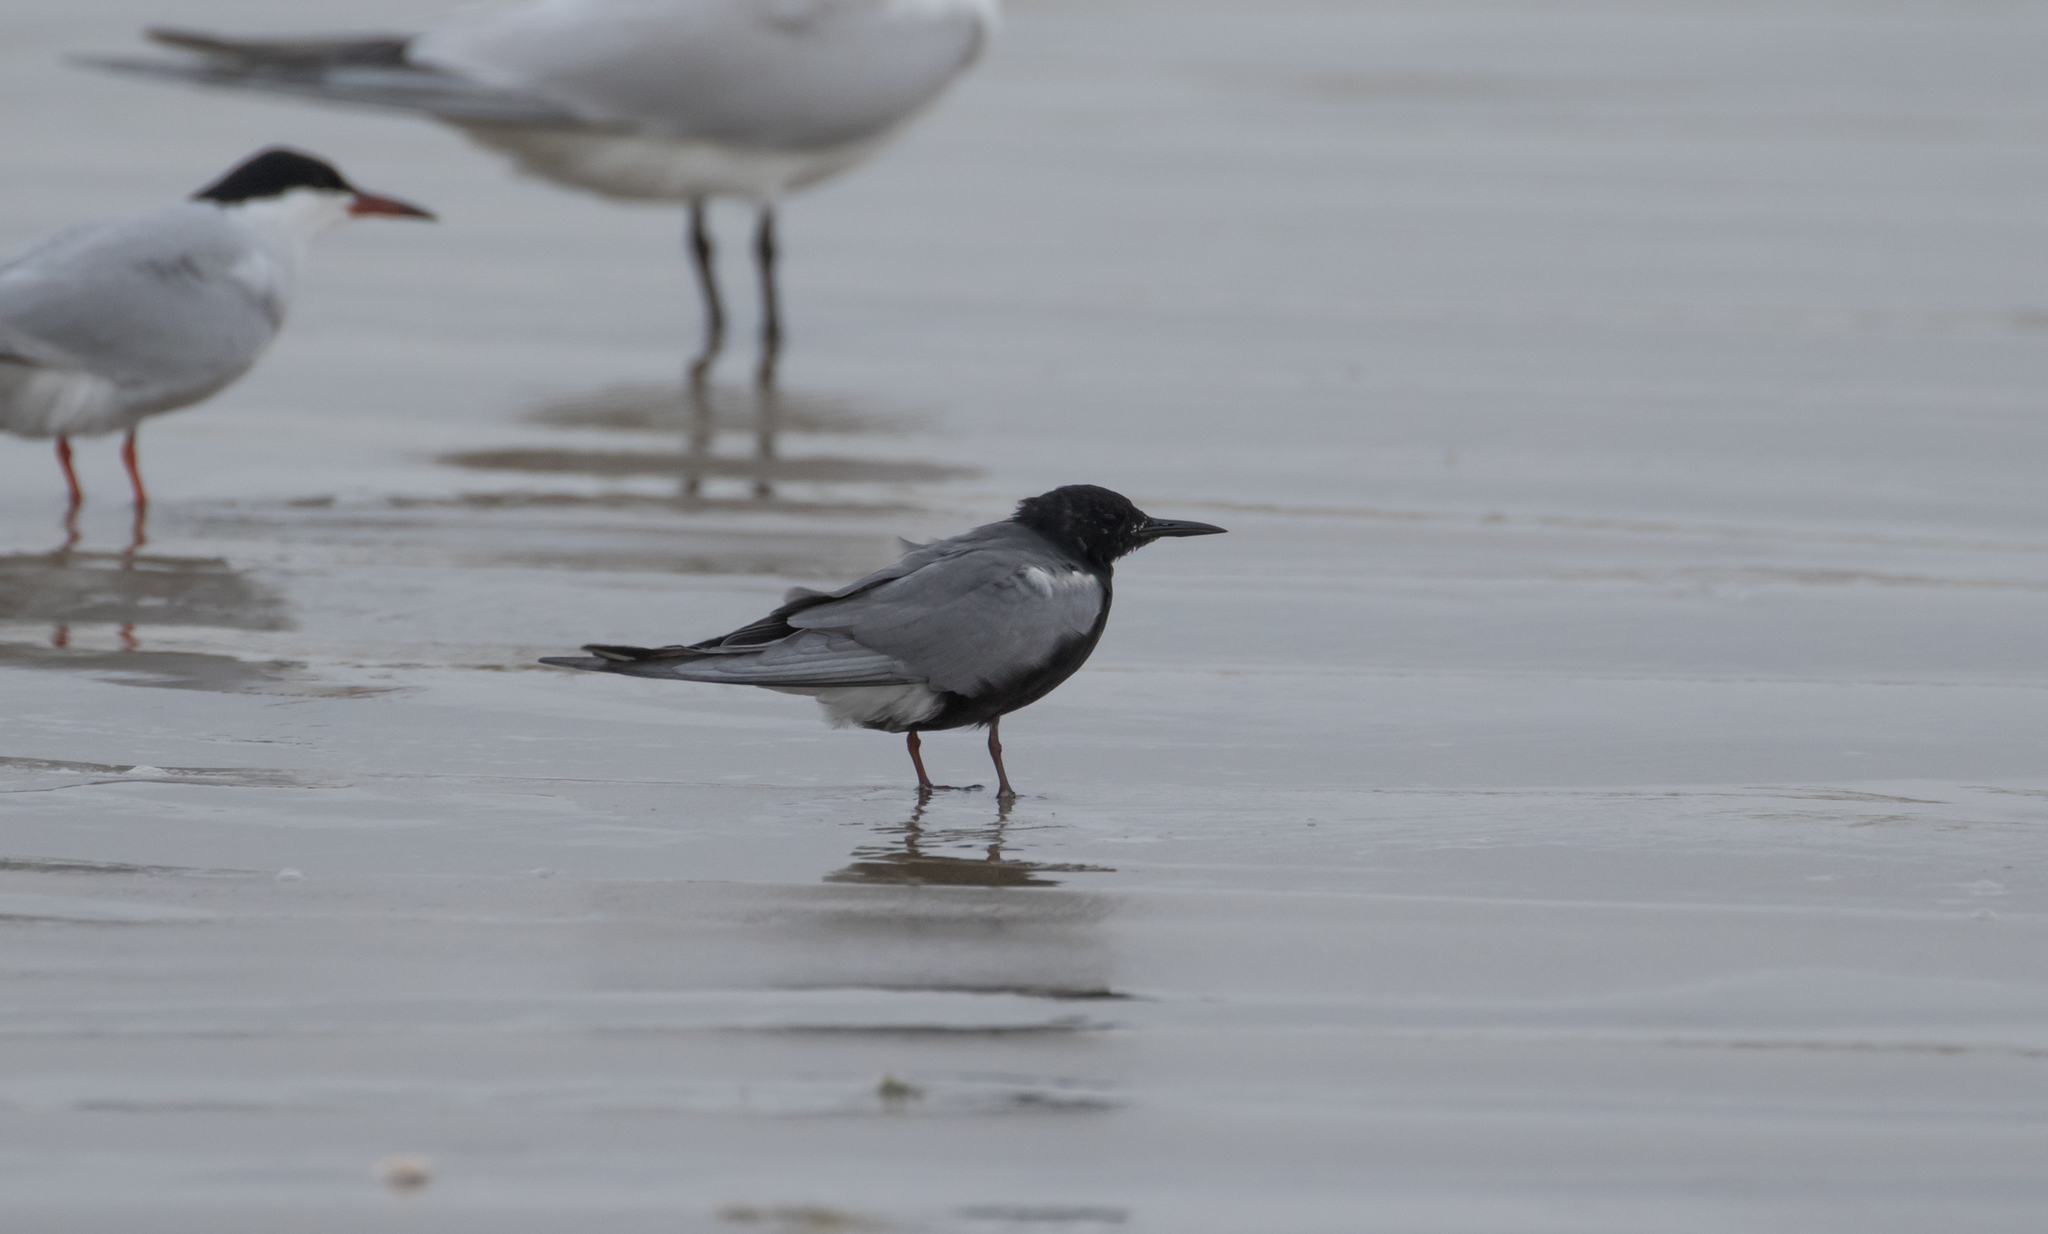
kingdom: Animalia
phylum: Chordata
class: Aves
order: Charadriiformes
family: Laridae
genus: Chlidonias
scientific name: Chlidonias niger
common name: Black tern
